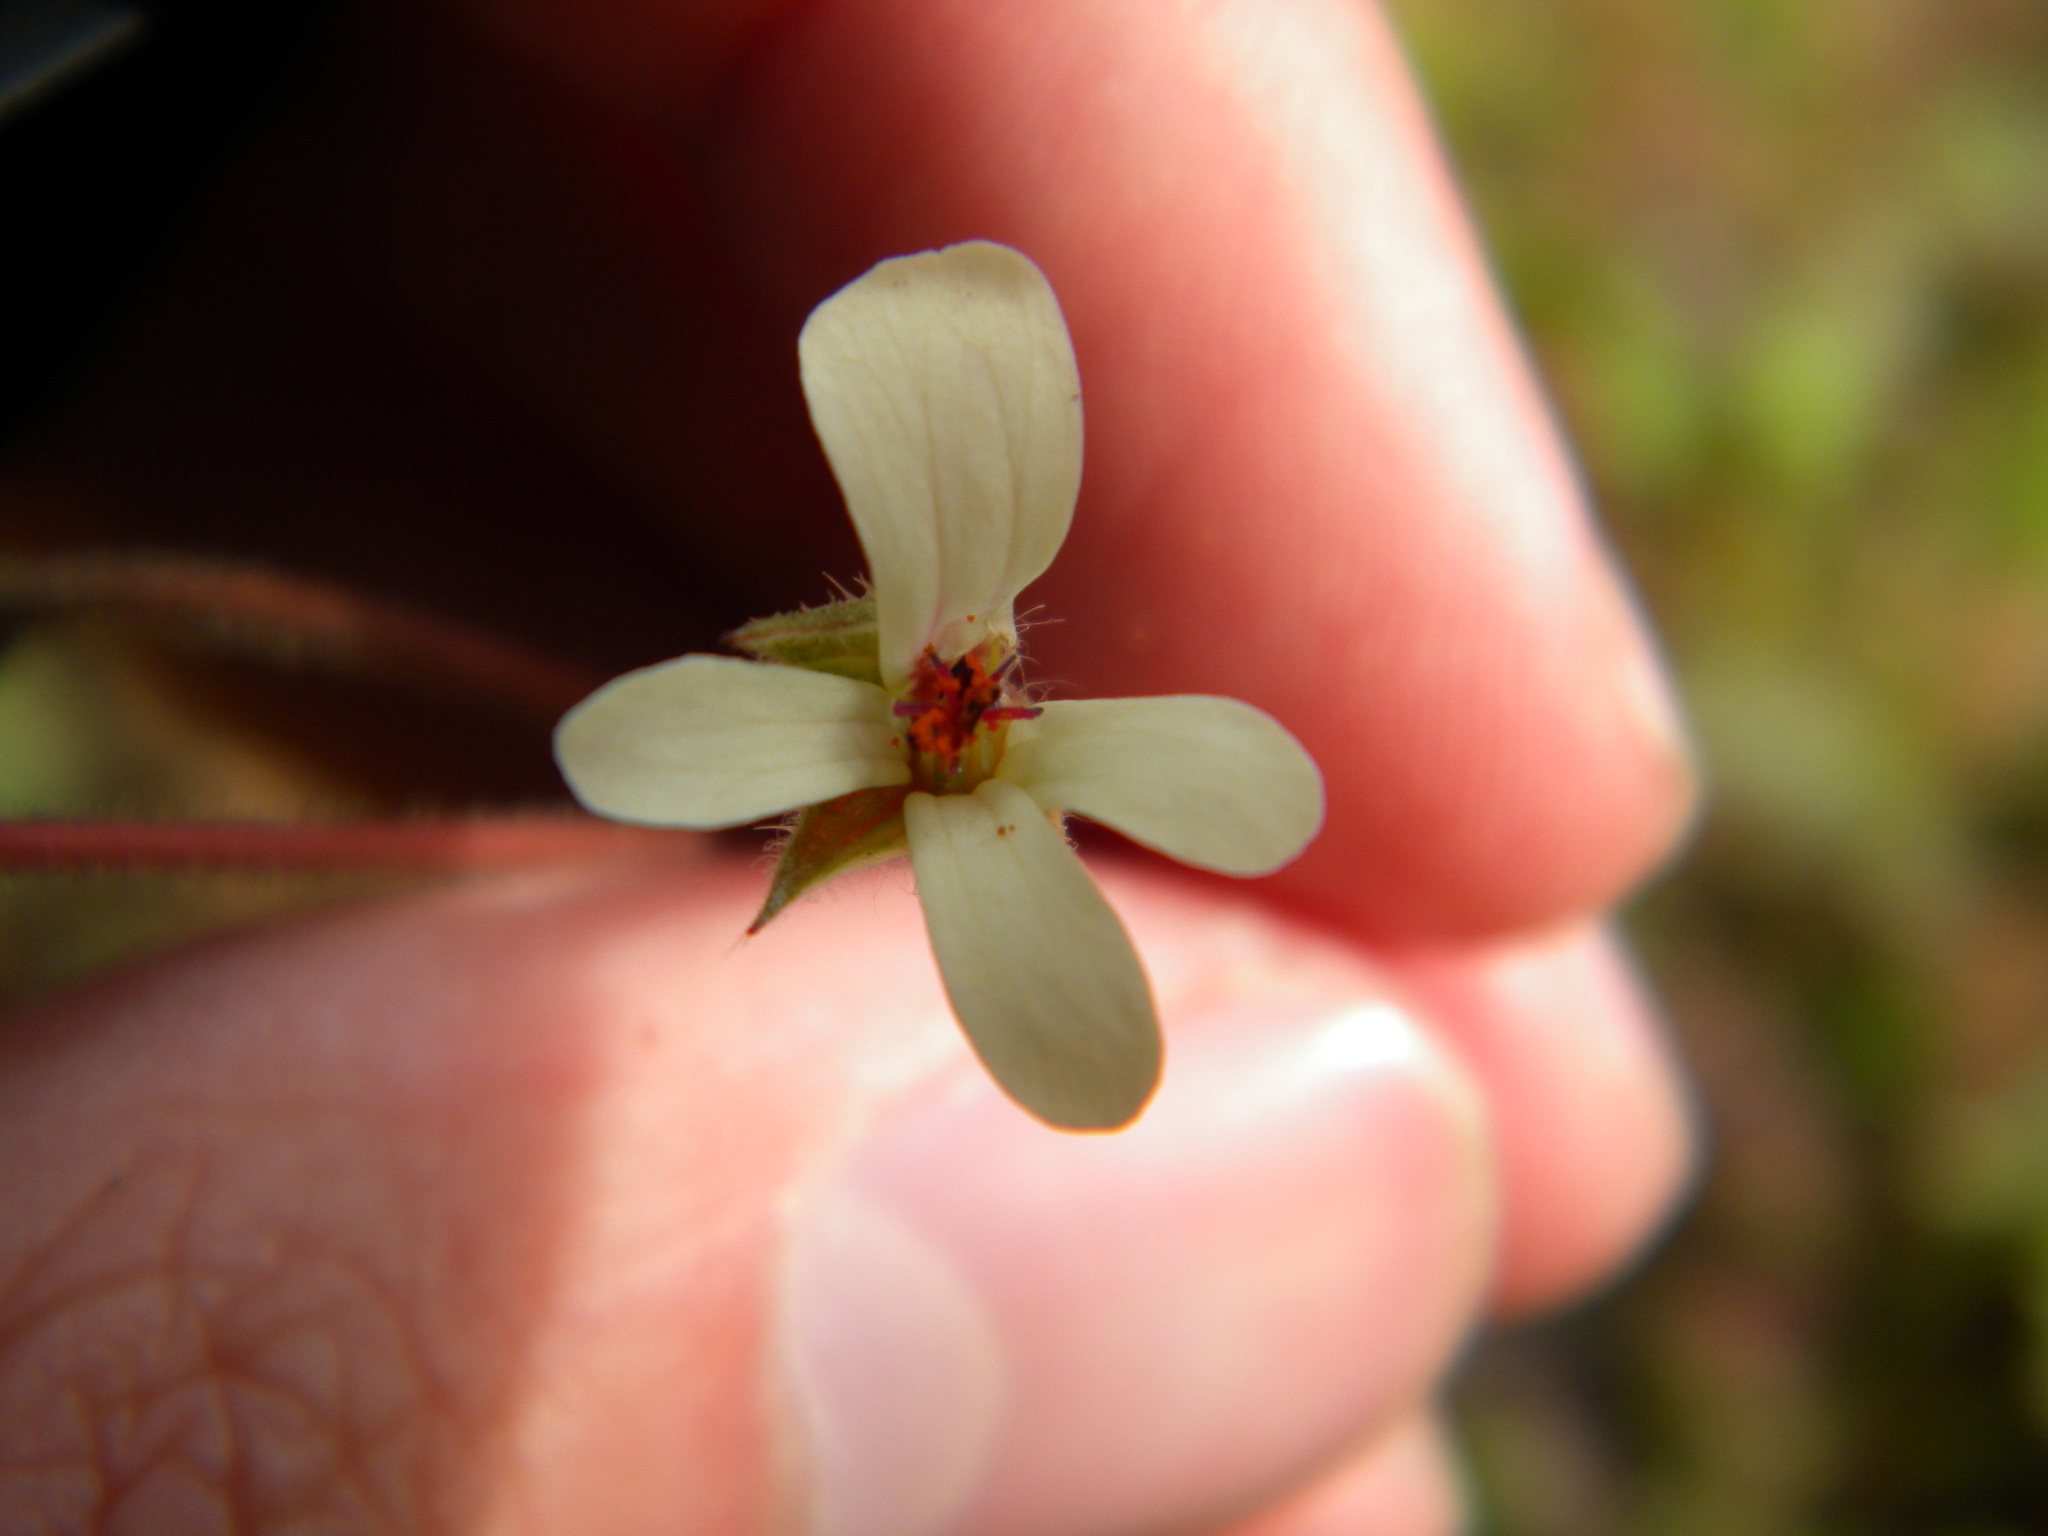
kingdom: Plantae
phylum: Tracheophyta
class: Magnoliopsida
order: Geraniales
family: Geraniaceae
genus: Pelargonium
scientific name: Pelargonium elongatum
